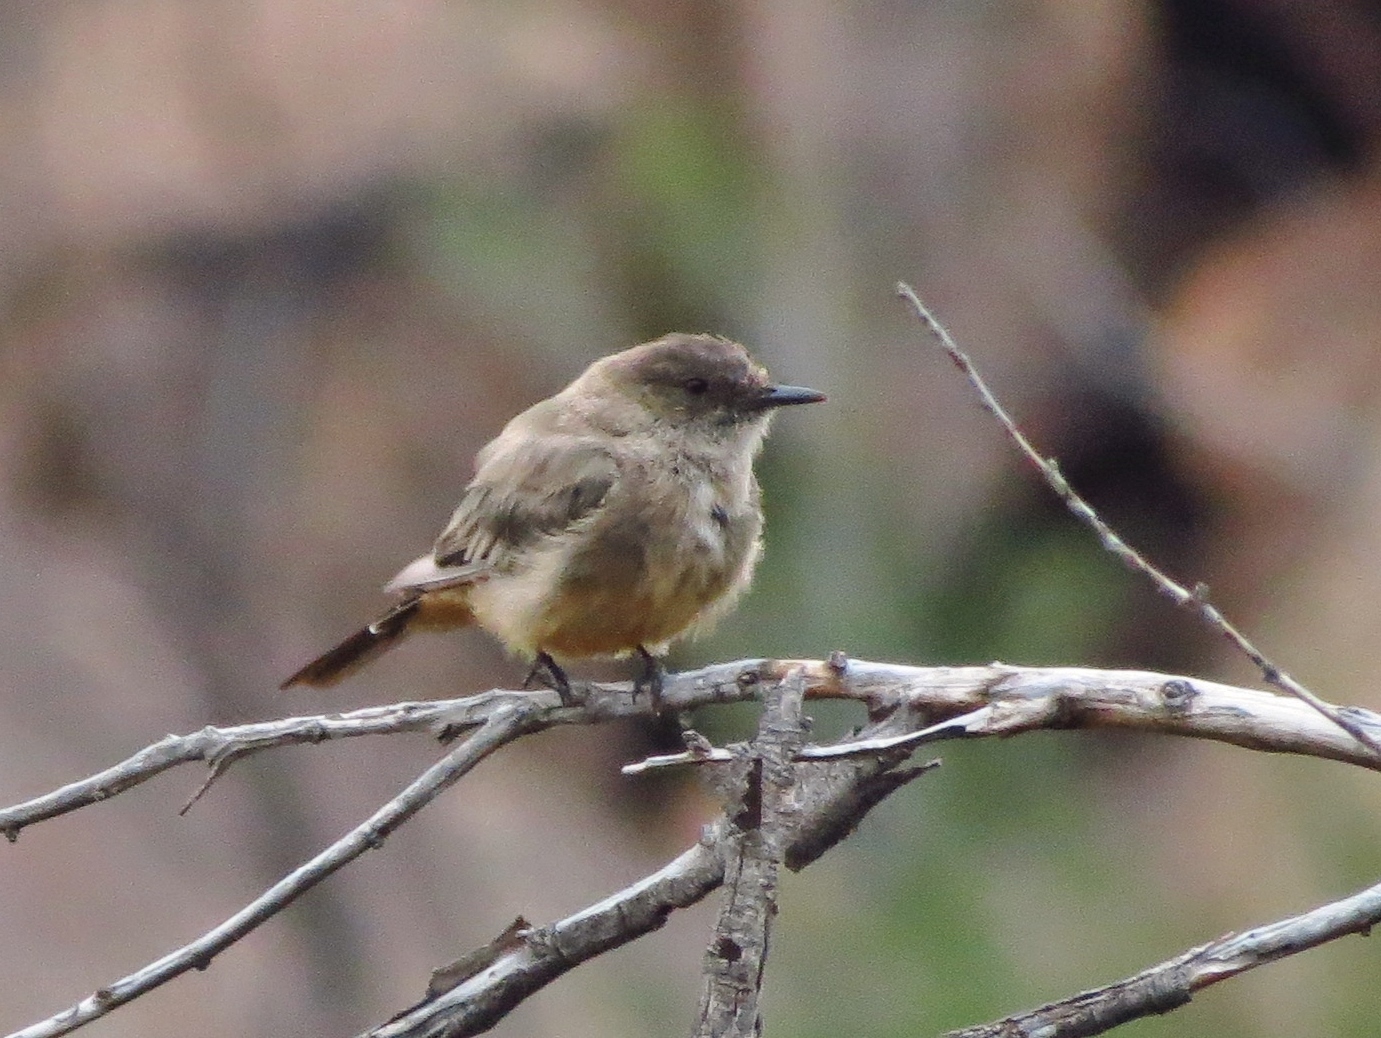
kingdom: Animalia
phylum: Chordata
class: Aves
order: Passeriformes
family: Tyrannidae
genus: Sayornis
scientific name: Sayornis saya
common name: Say's phoebe
